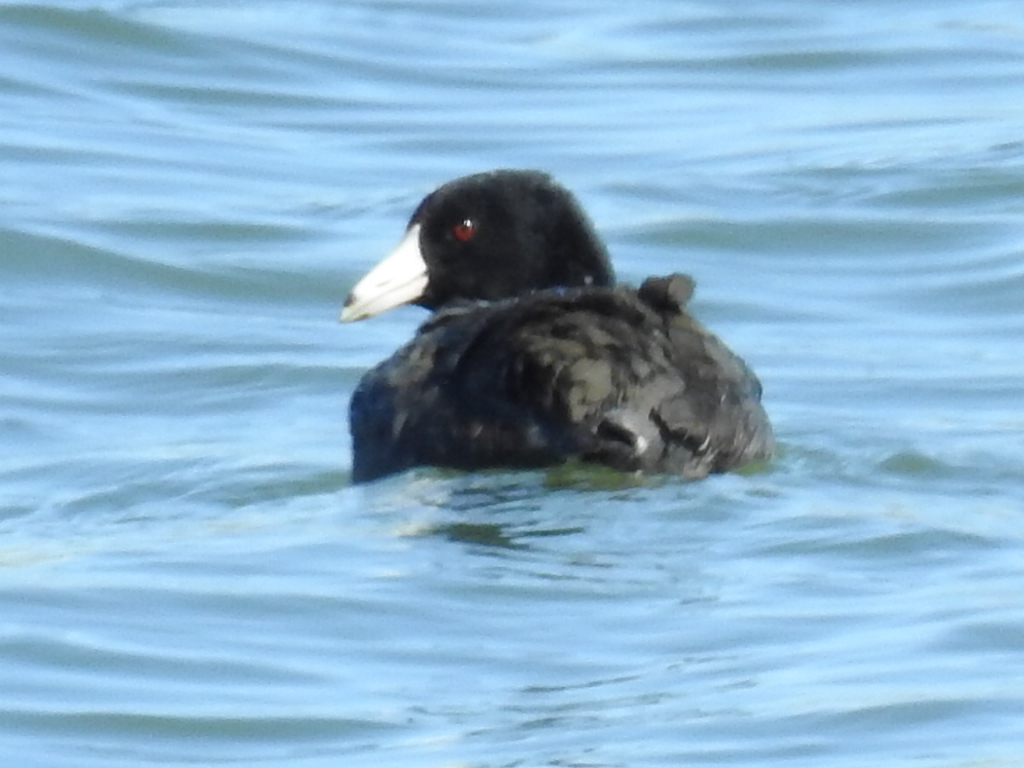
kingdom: Animalia
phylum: Chordata
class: Aves
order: Gruiformes
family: Rallidae
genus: Fulica
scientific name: Fulica americana
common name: American coot
